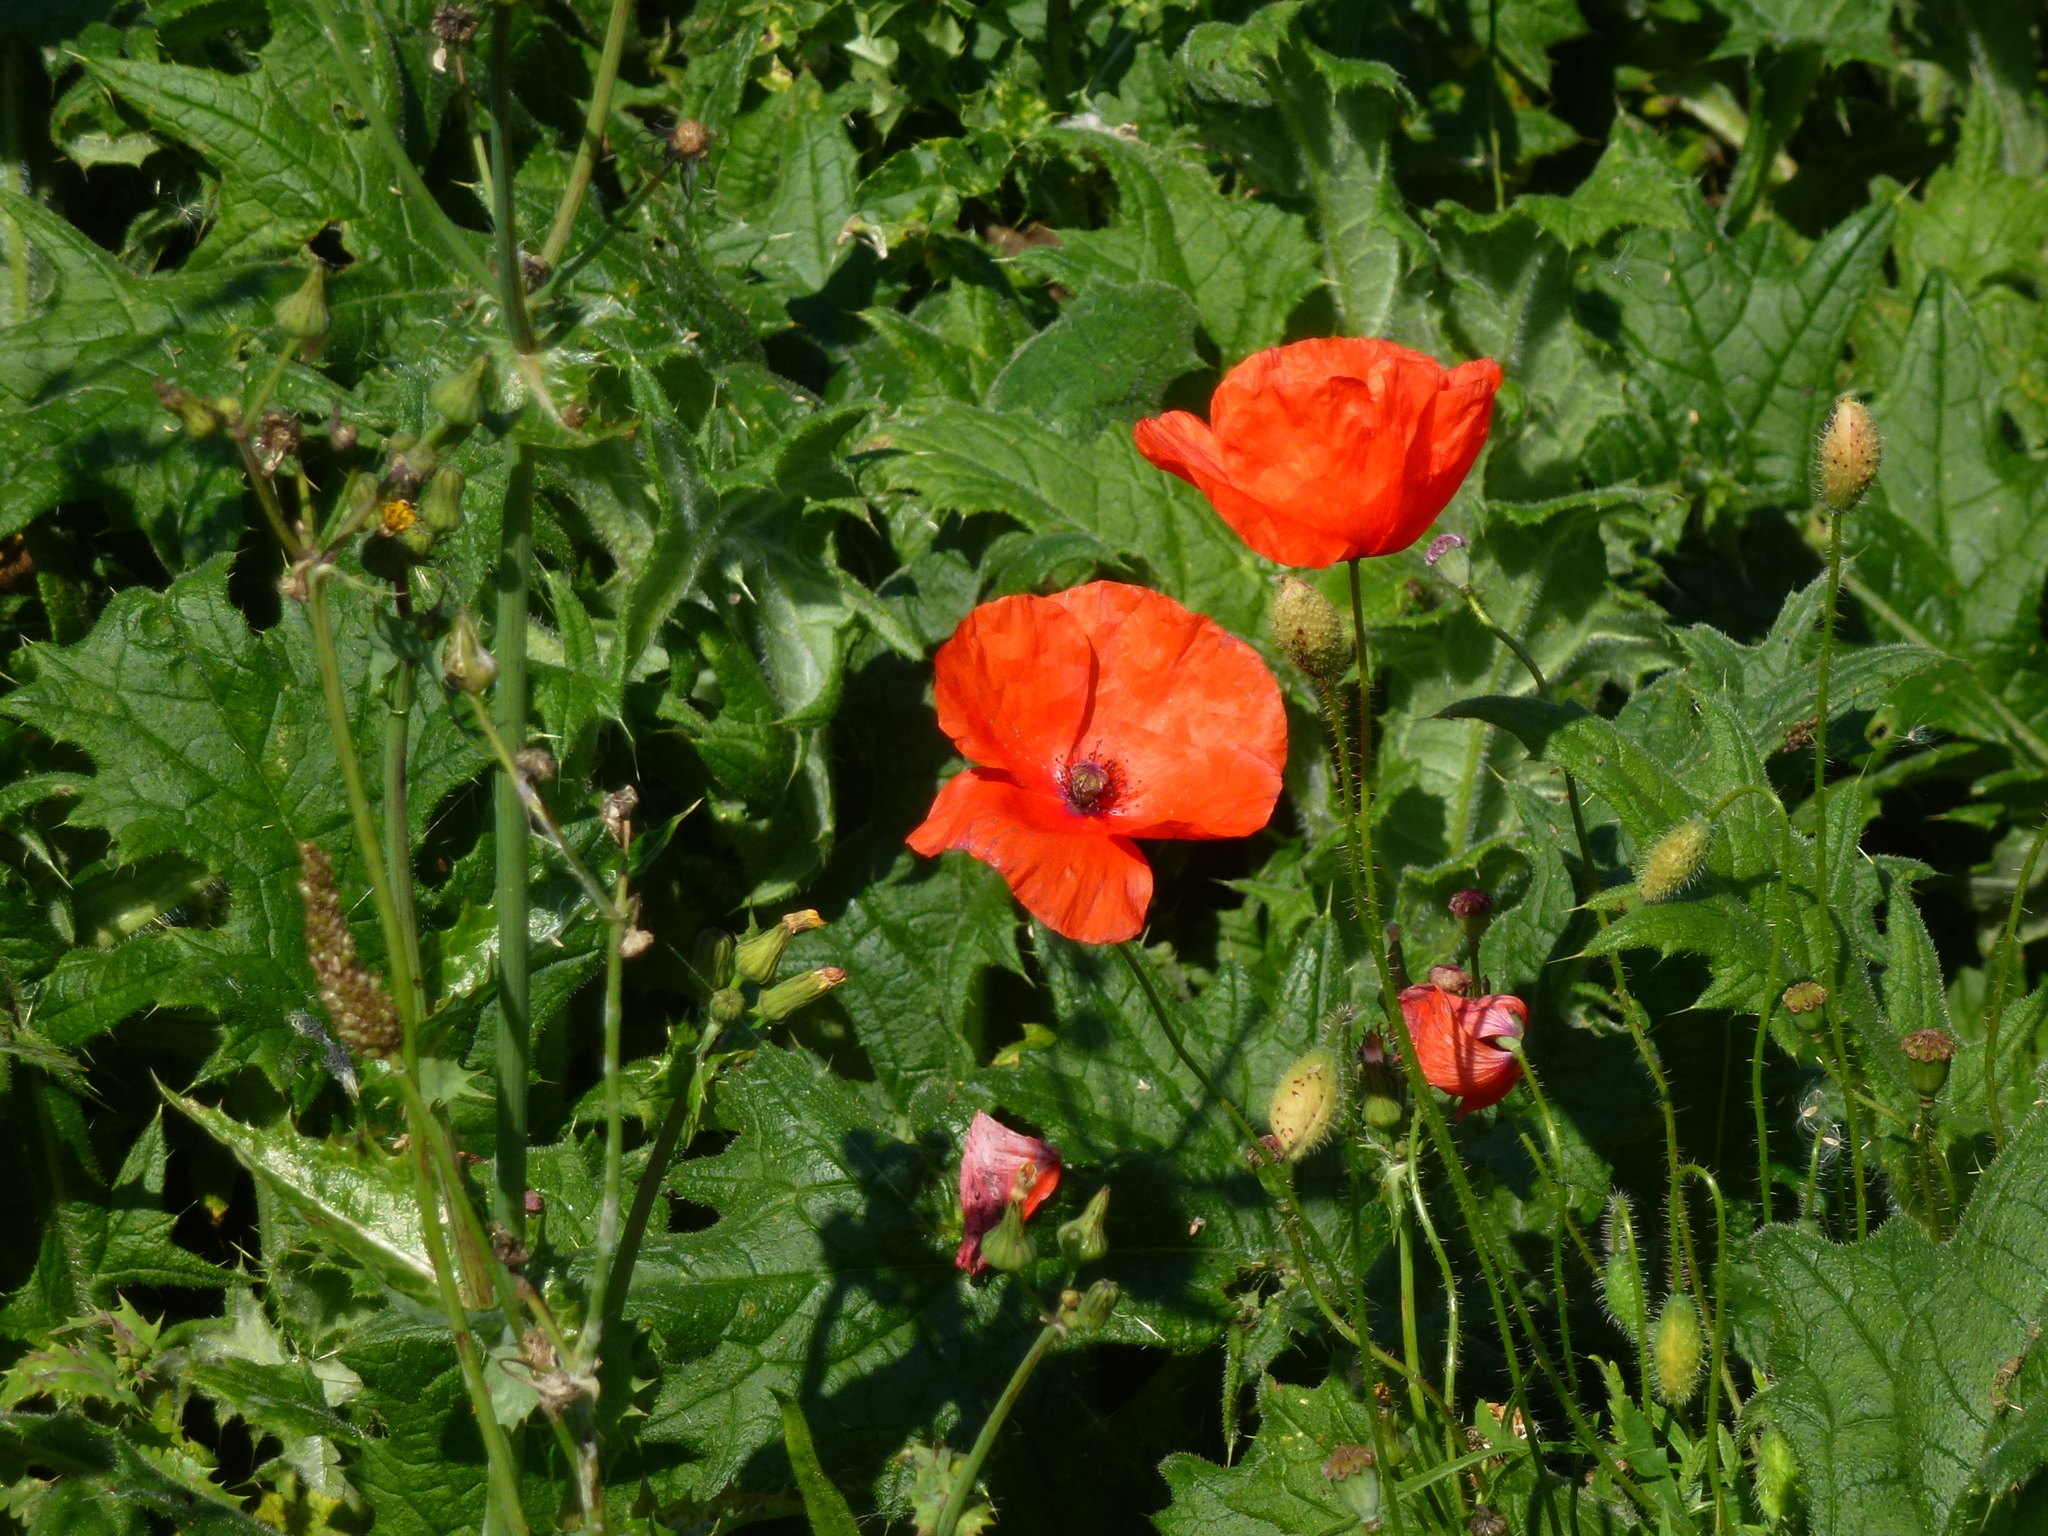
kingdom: Plantae
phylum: Tracheophyta
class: Magnoliopsida
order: Ranunculales
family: Papaveraceae
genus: Papaver
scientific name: Papaver rhoeas
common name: Corn poppy
